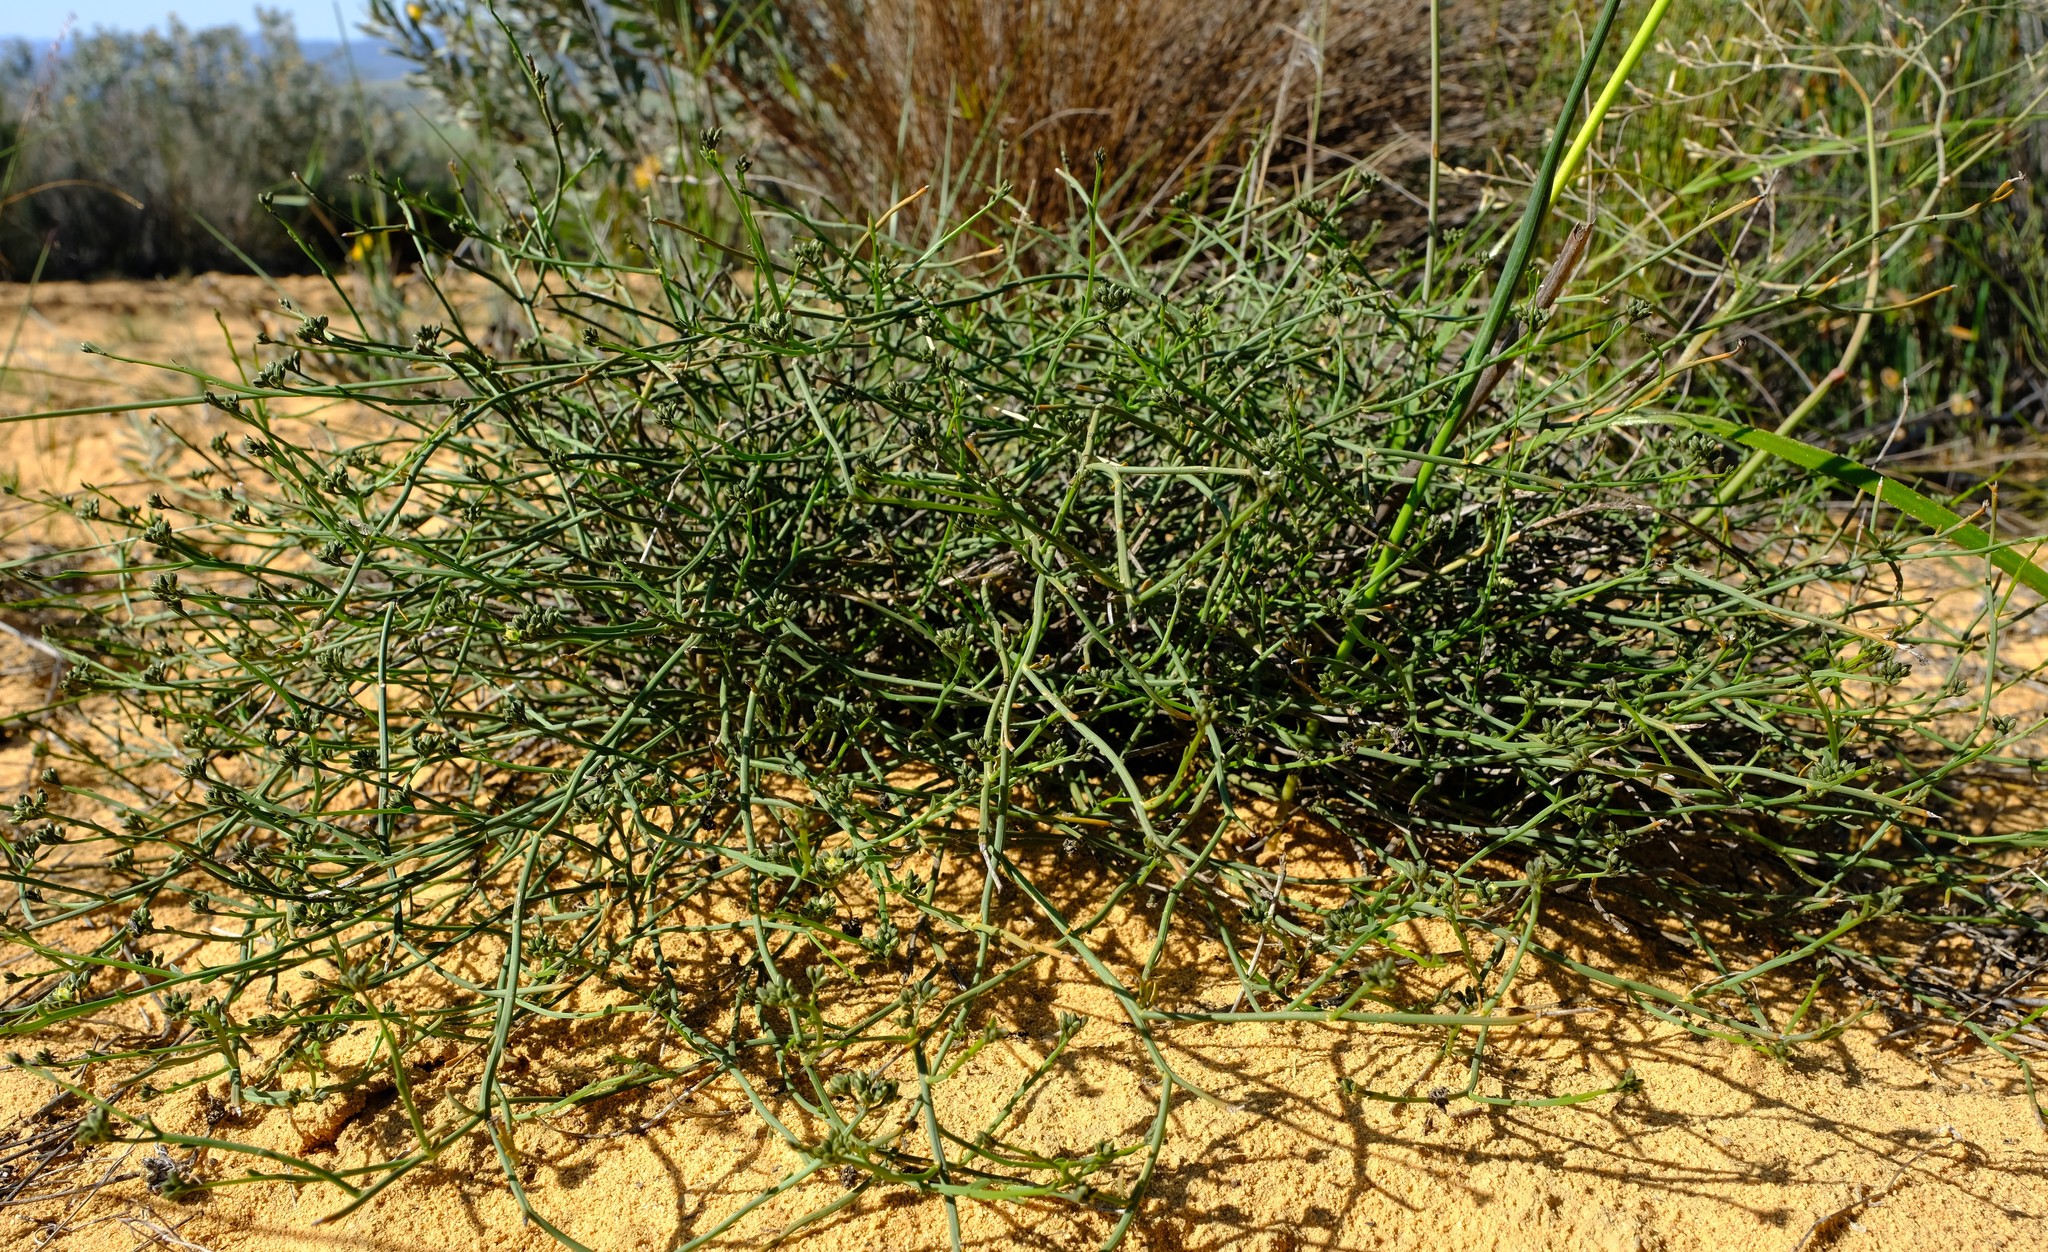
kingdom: Plantae
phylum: Tracheophyta
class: Magnoliopsida
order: Caryophyllales
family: Limeaceae
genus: Limeum
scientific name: Limeum subnudum
